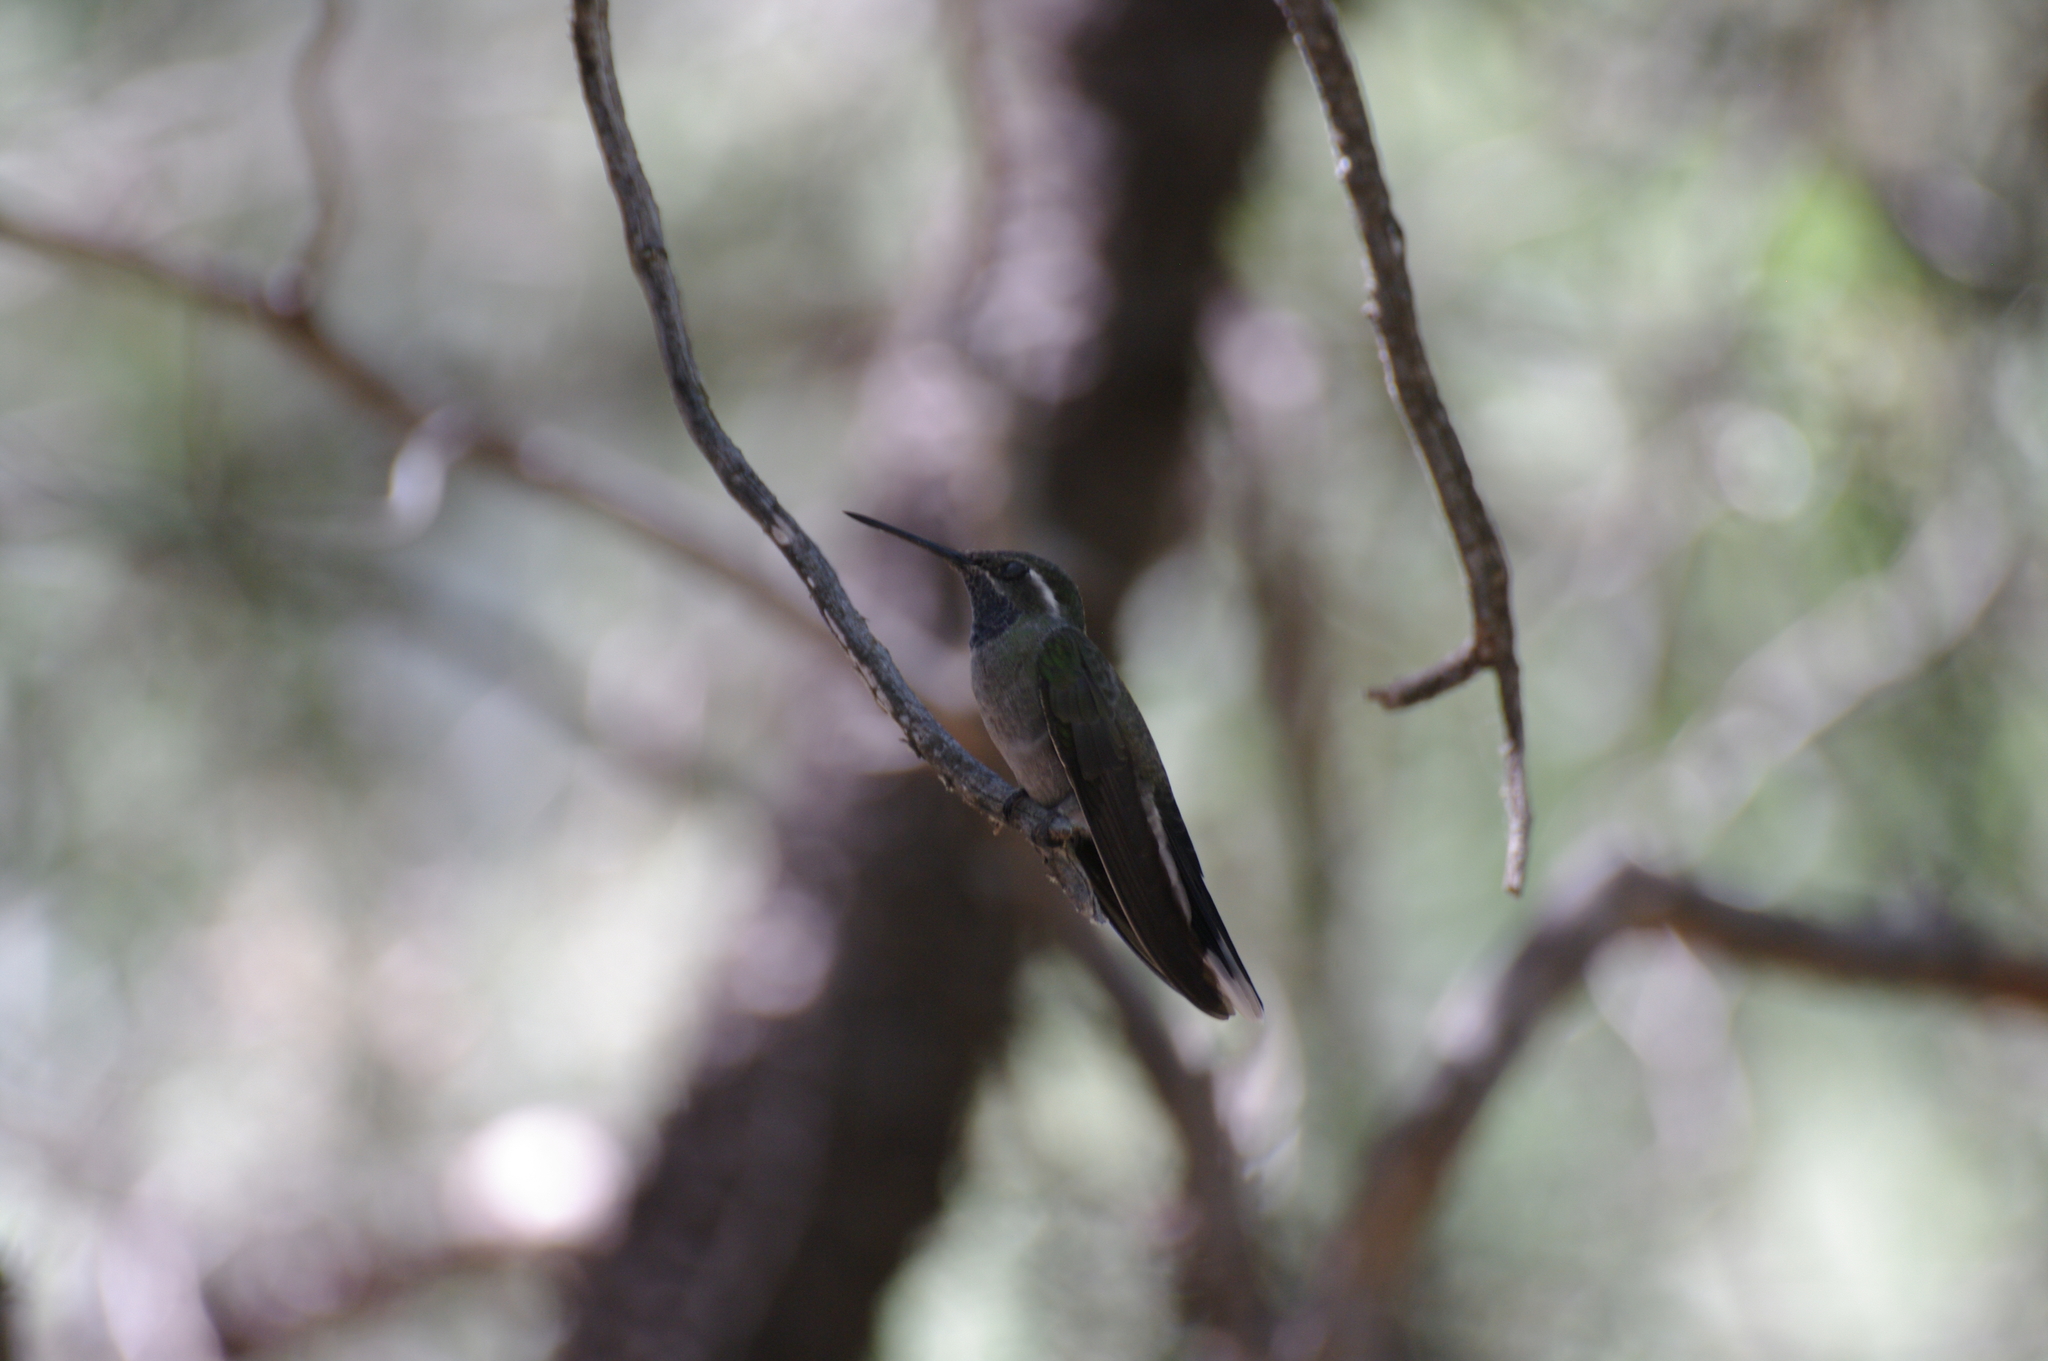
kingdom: Animalia
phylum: Chordata
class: Aves
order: Apodiformes
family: Trochilidae
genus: Lampornis
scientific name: Lampornis clemenciae
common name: Blue-throated mountaingem
